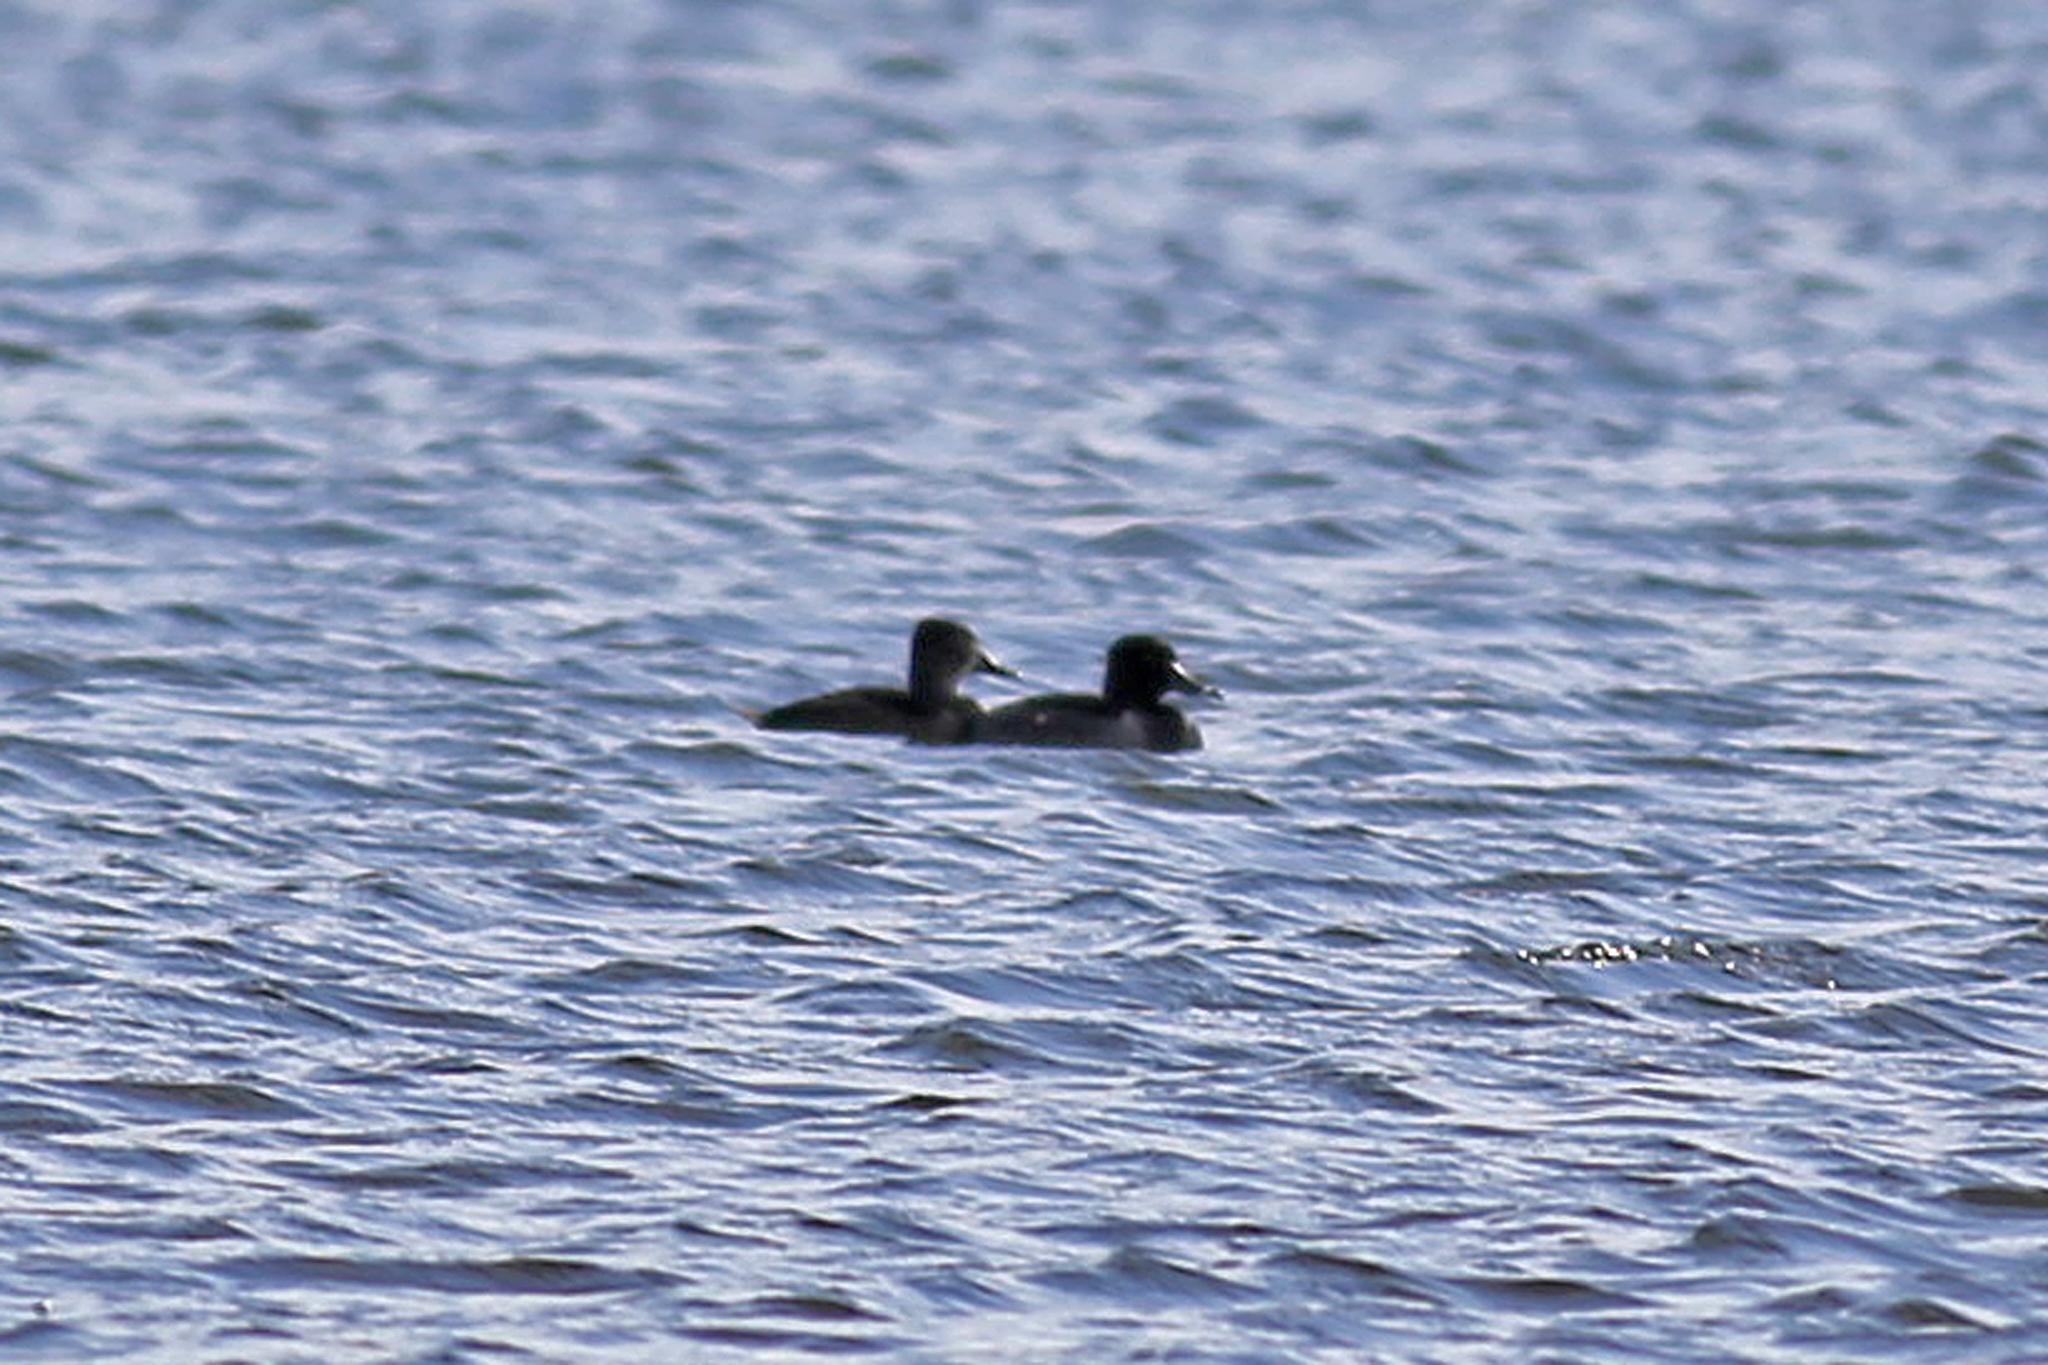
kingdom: Animalia
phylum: Chordata
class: Aves
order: Anseriformes
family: Anatidae
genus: Aythya
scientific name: Aythya collaris
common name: Ring-necked duck
